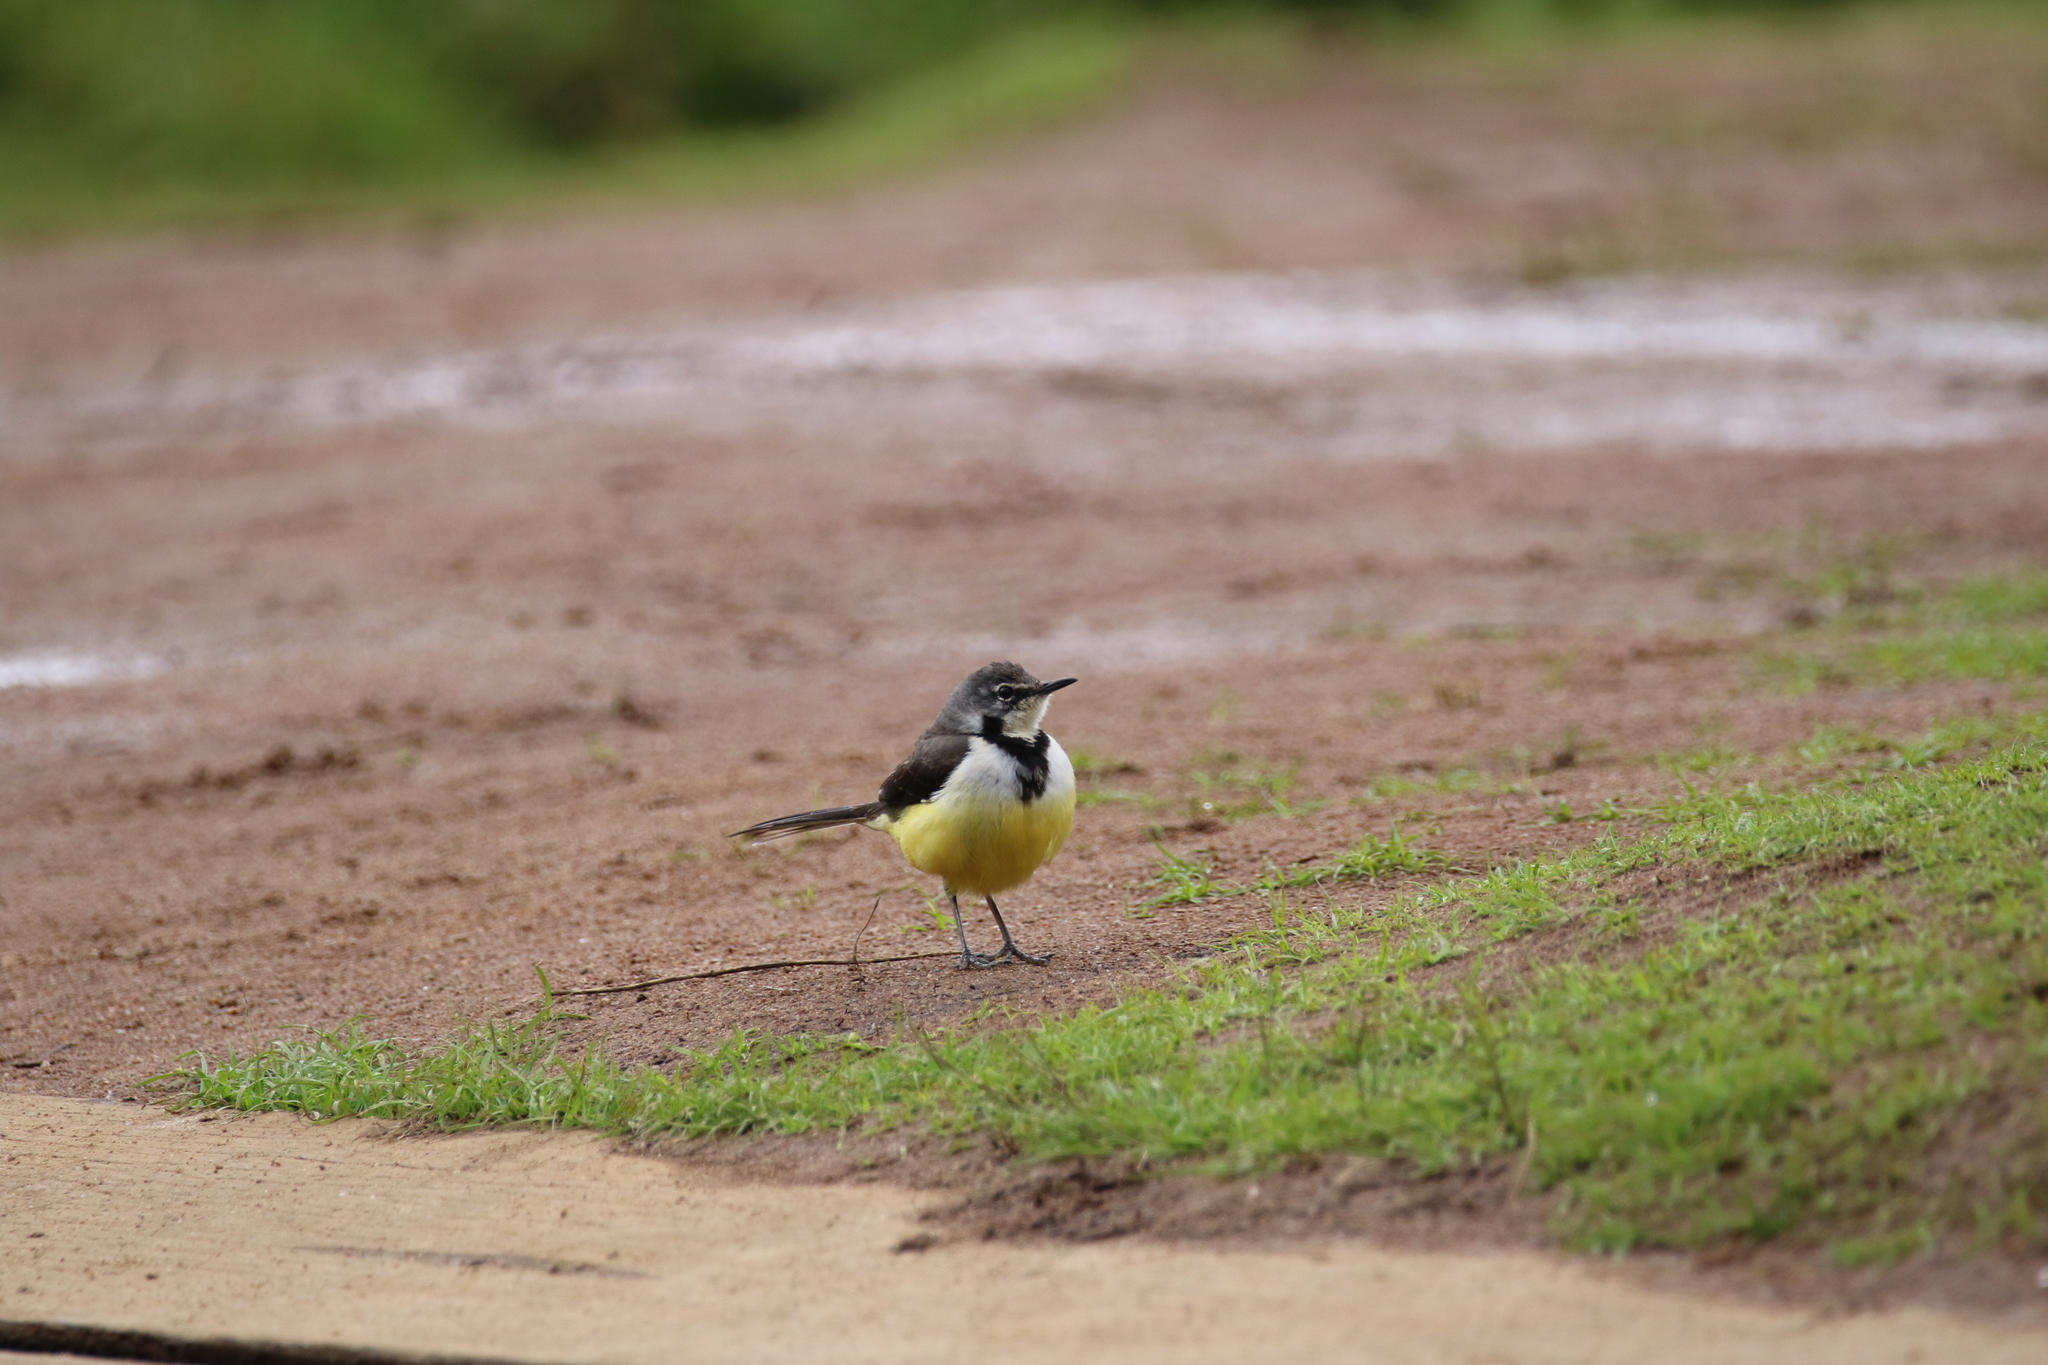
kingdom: Animalia
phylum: Chordata
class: Aves
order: Passeriformes
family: Motacillidae
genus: Motacilla
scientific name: Motacilla flaviventris
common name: Madagascar wagtail
